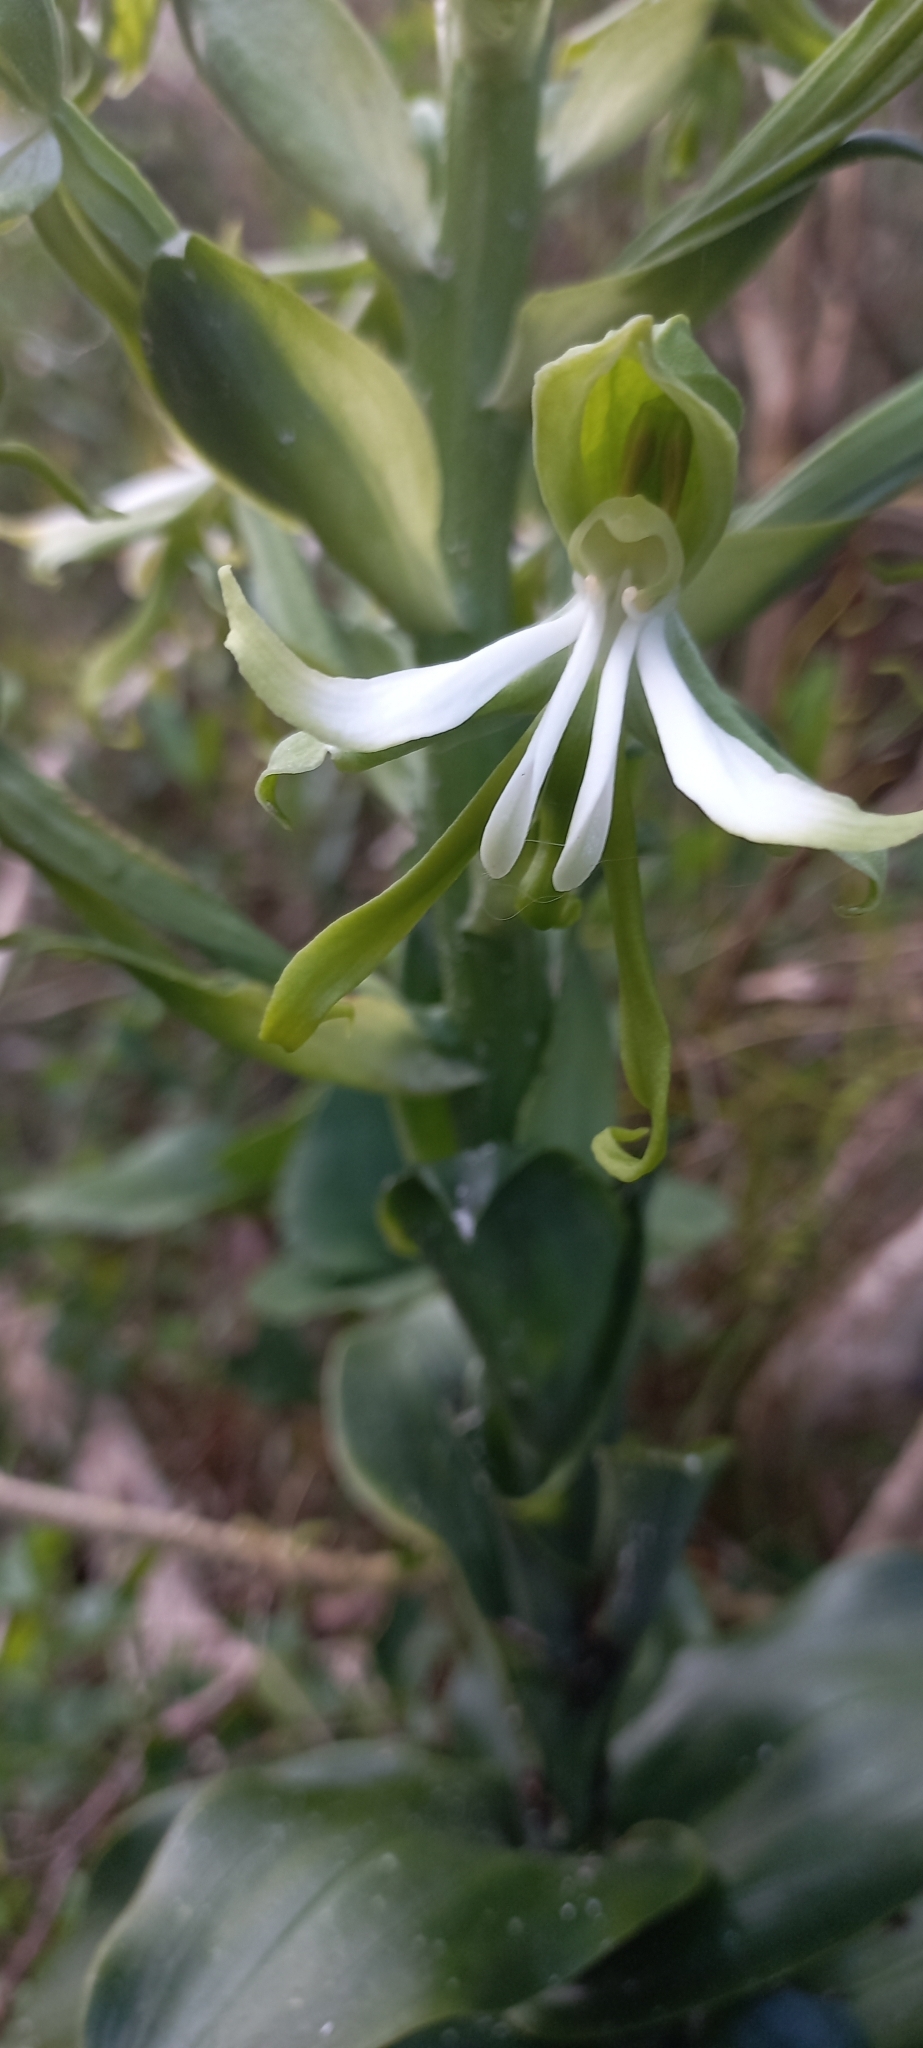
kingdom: Plantae
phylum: Tracheophyta
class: Liliopsida
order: Asparagales
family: Orchidaceae
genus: Bonatea
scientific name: Bonatea speciosa
